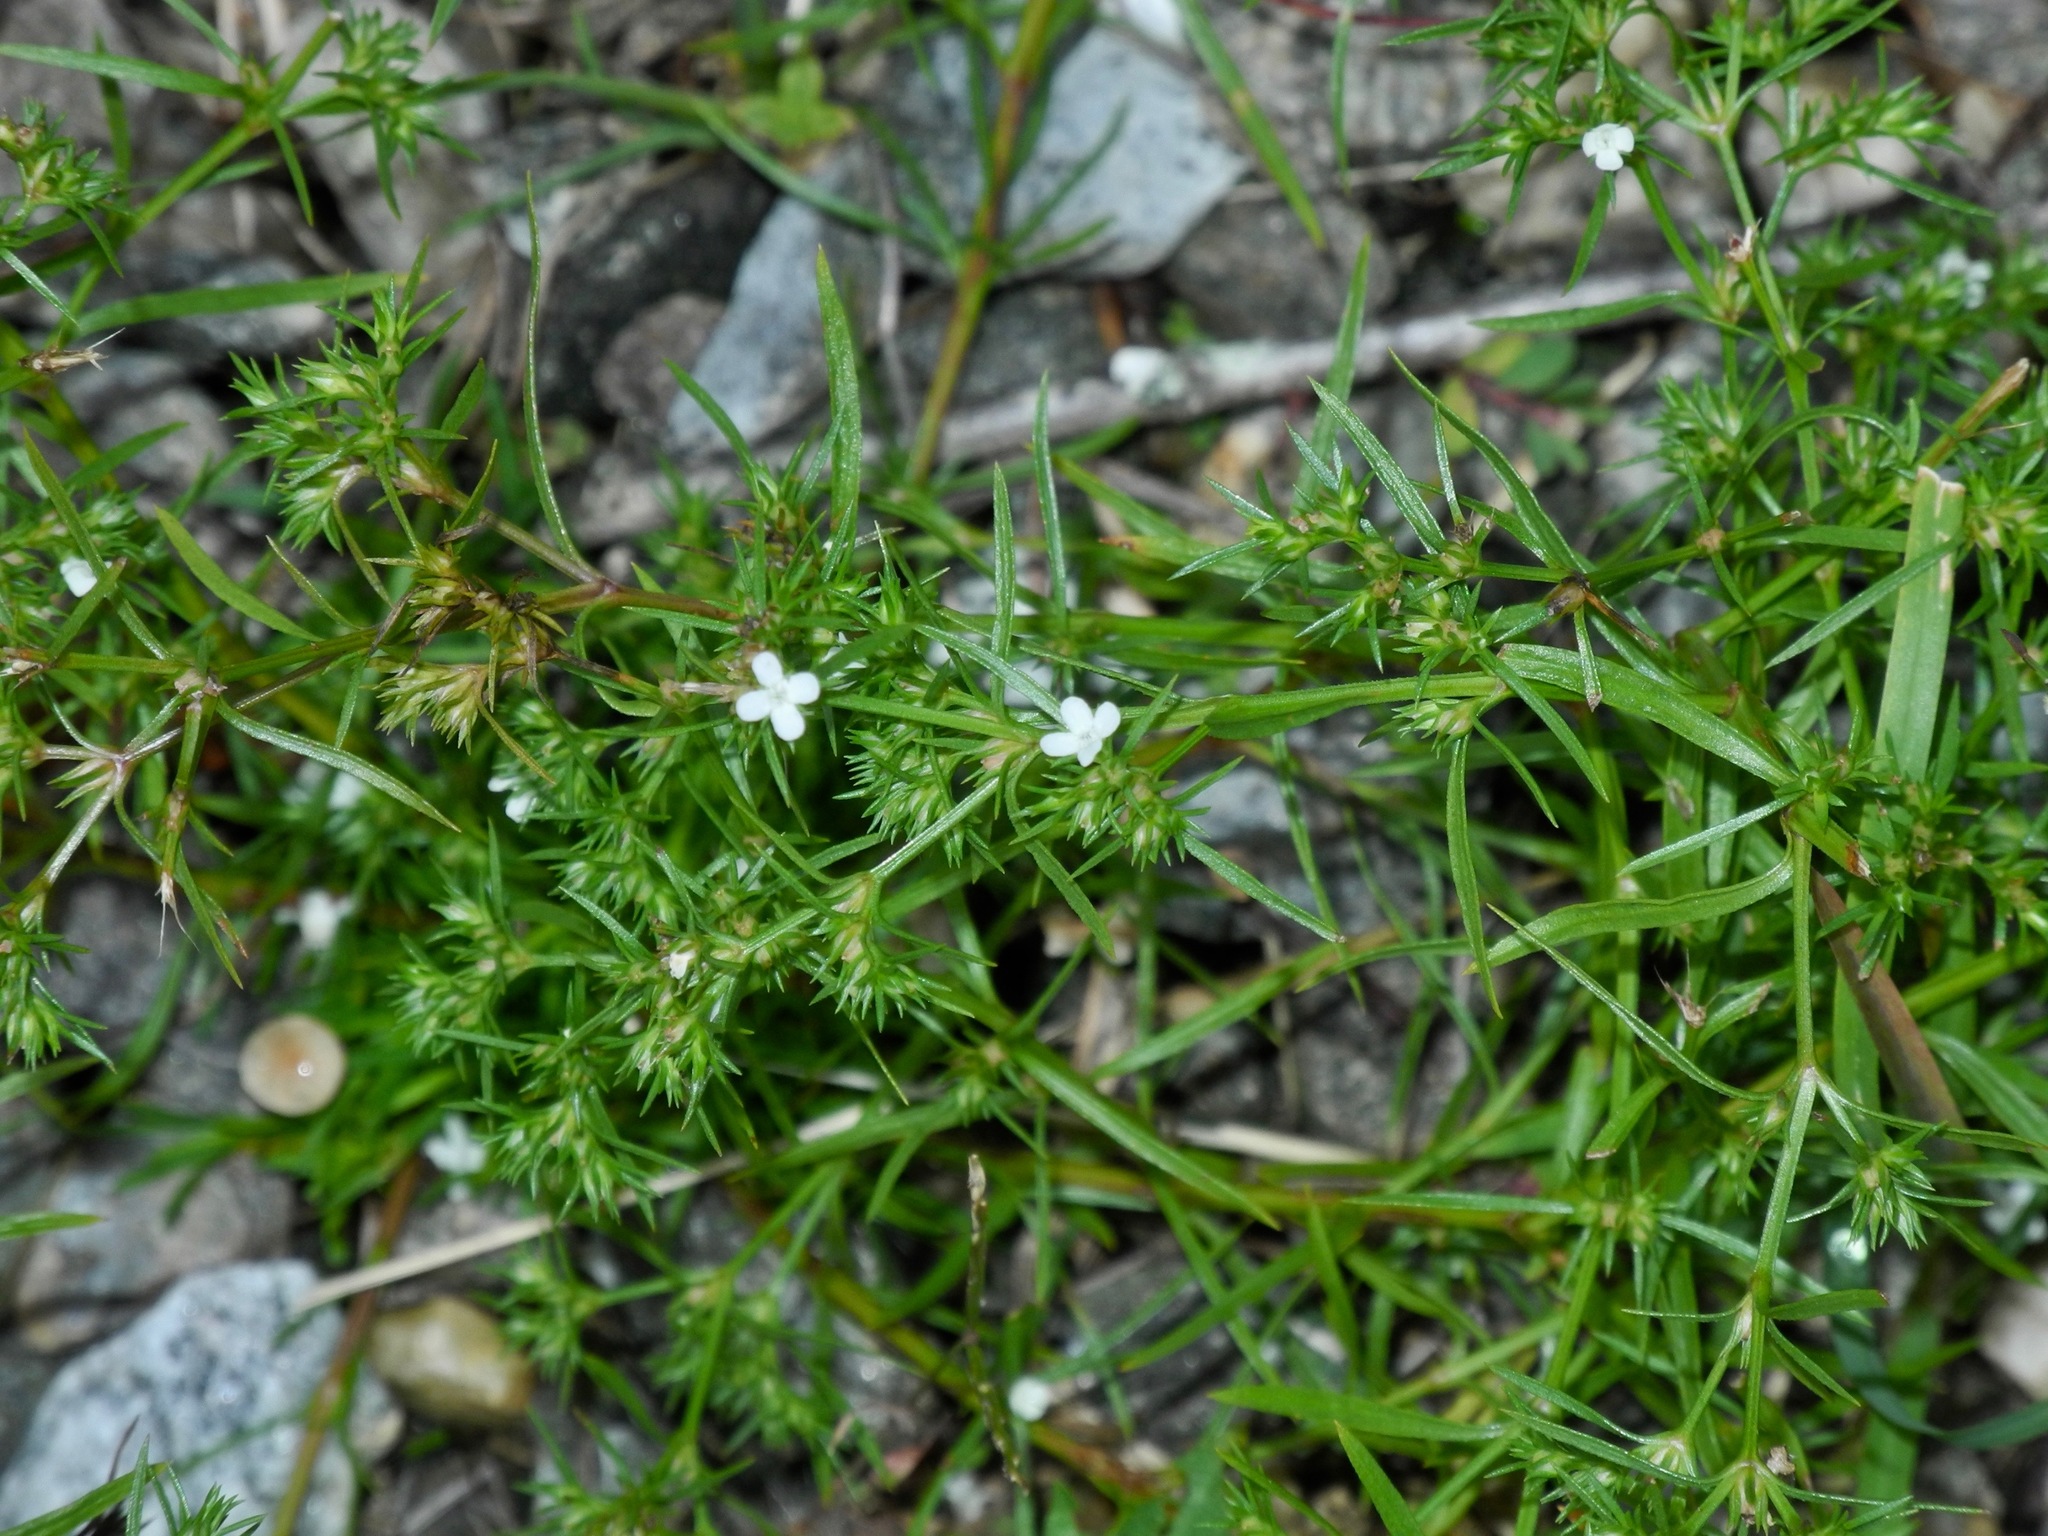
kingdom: Plantae
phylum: Tracheophyta
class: Magnoliopsida
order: Lamiales
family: Tetrachondraceae
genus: Polypremum
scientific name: Polypremum procumbens
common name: Juniper-leaf
